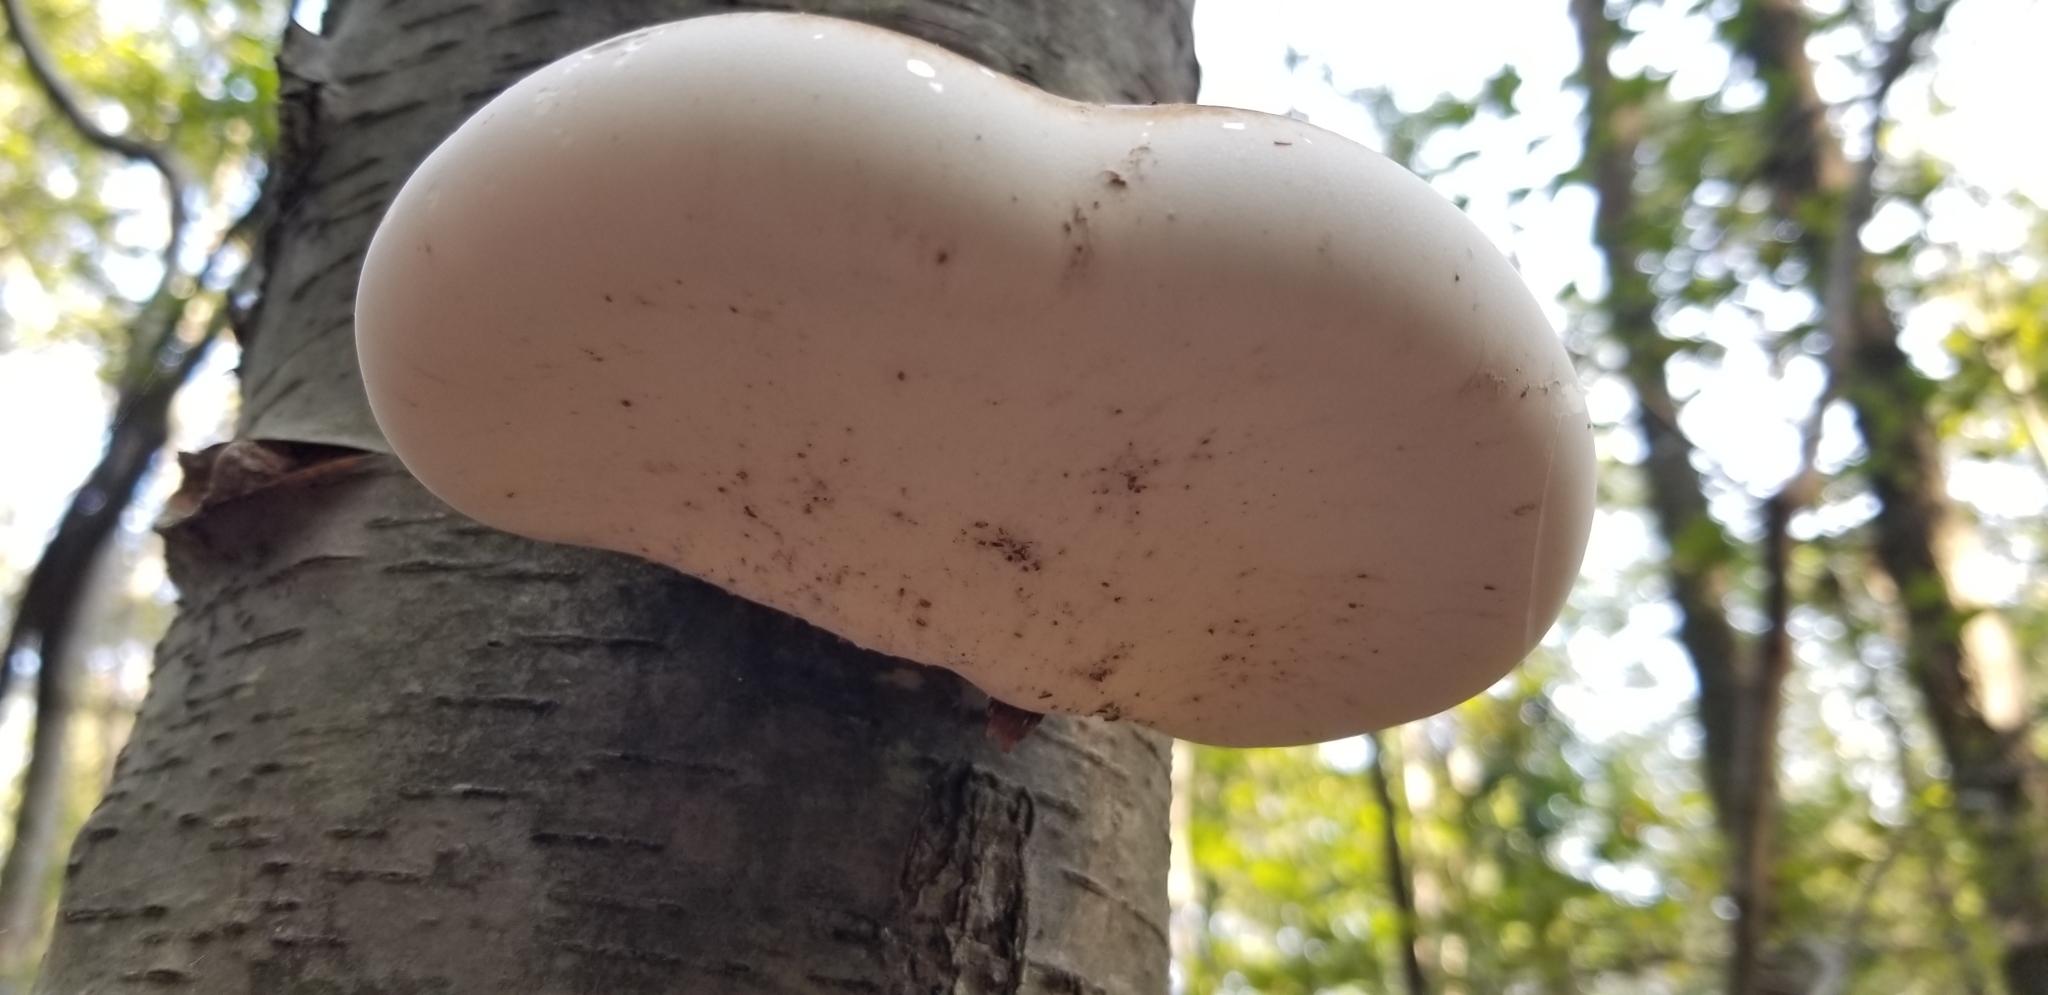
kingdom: Fungi
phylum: Basidiomycota
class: Agaricomycetes
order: Polyporales
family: Fomitopsidaceae
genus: Fomitopsis
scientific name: Fomitopsis betulina
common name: Birch polypore
